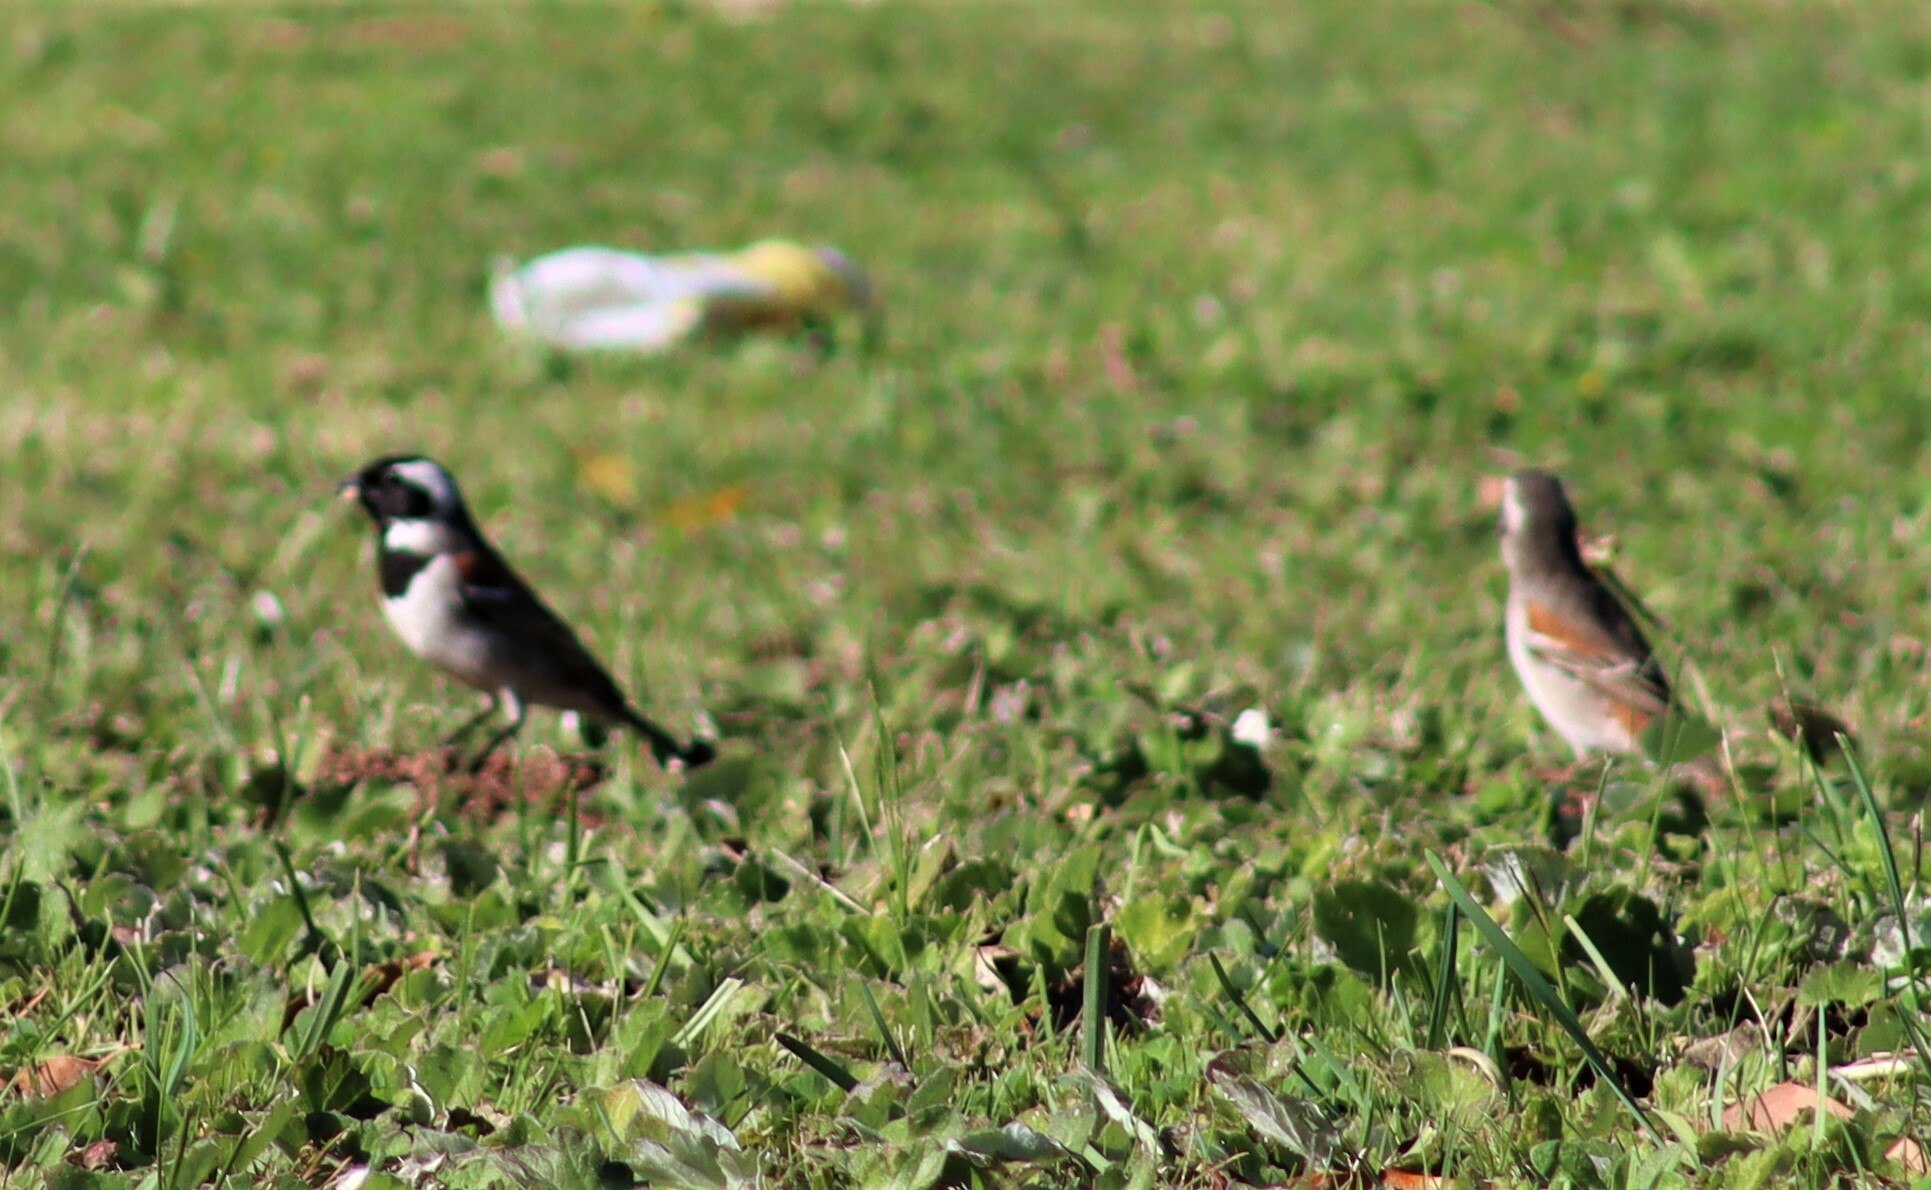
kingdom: Animalia
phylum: Chordata
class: Aves
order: Passeriformes
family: Passeridae
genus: Passer
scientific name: Passer melanurus
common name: Cape sparrow
